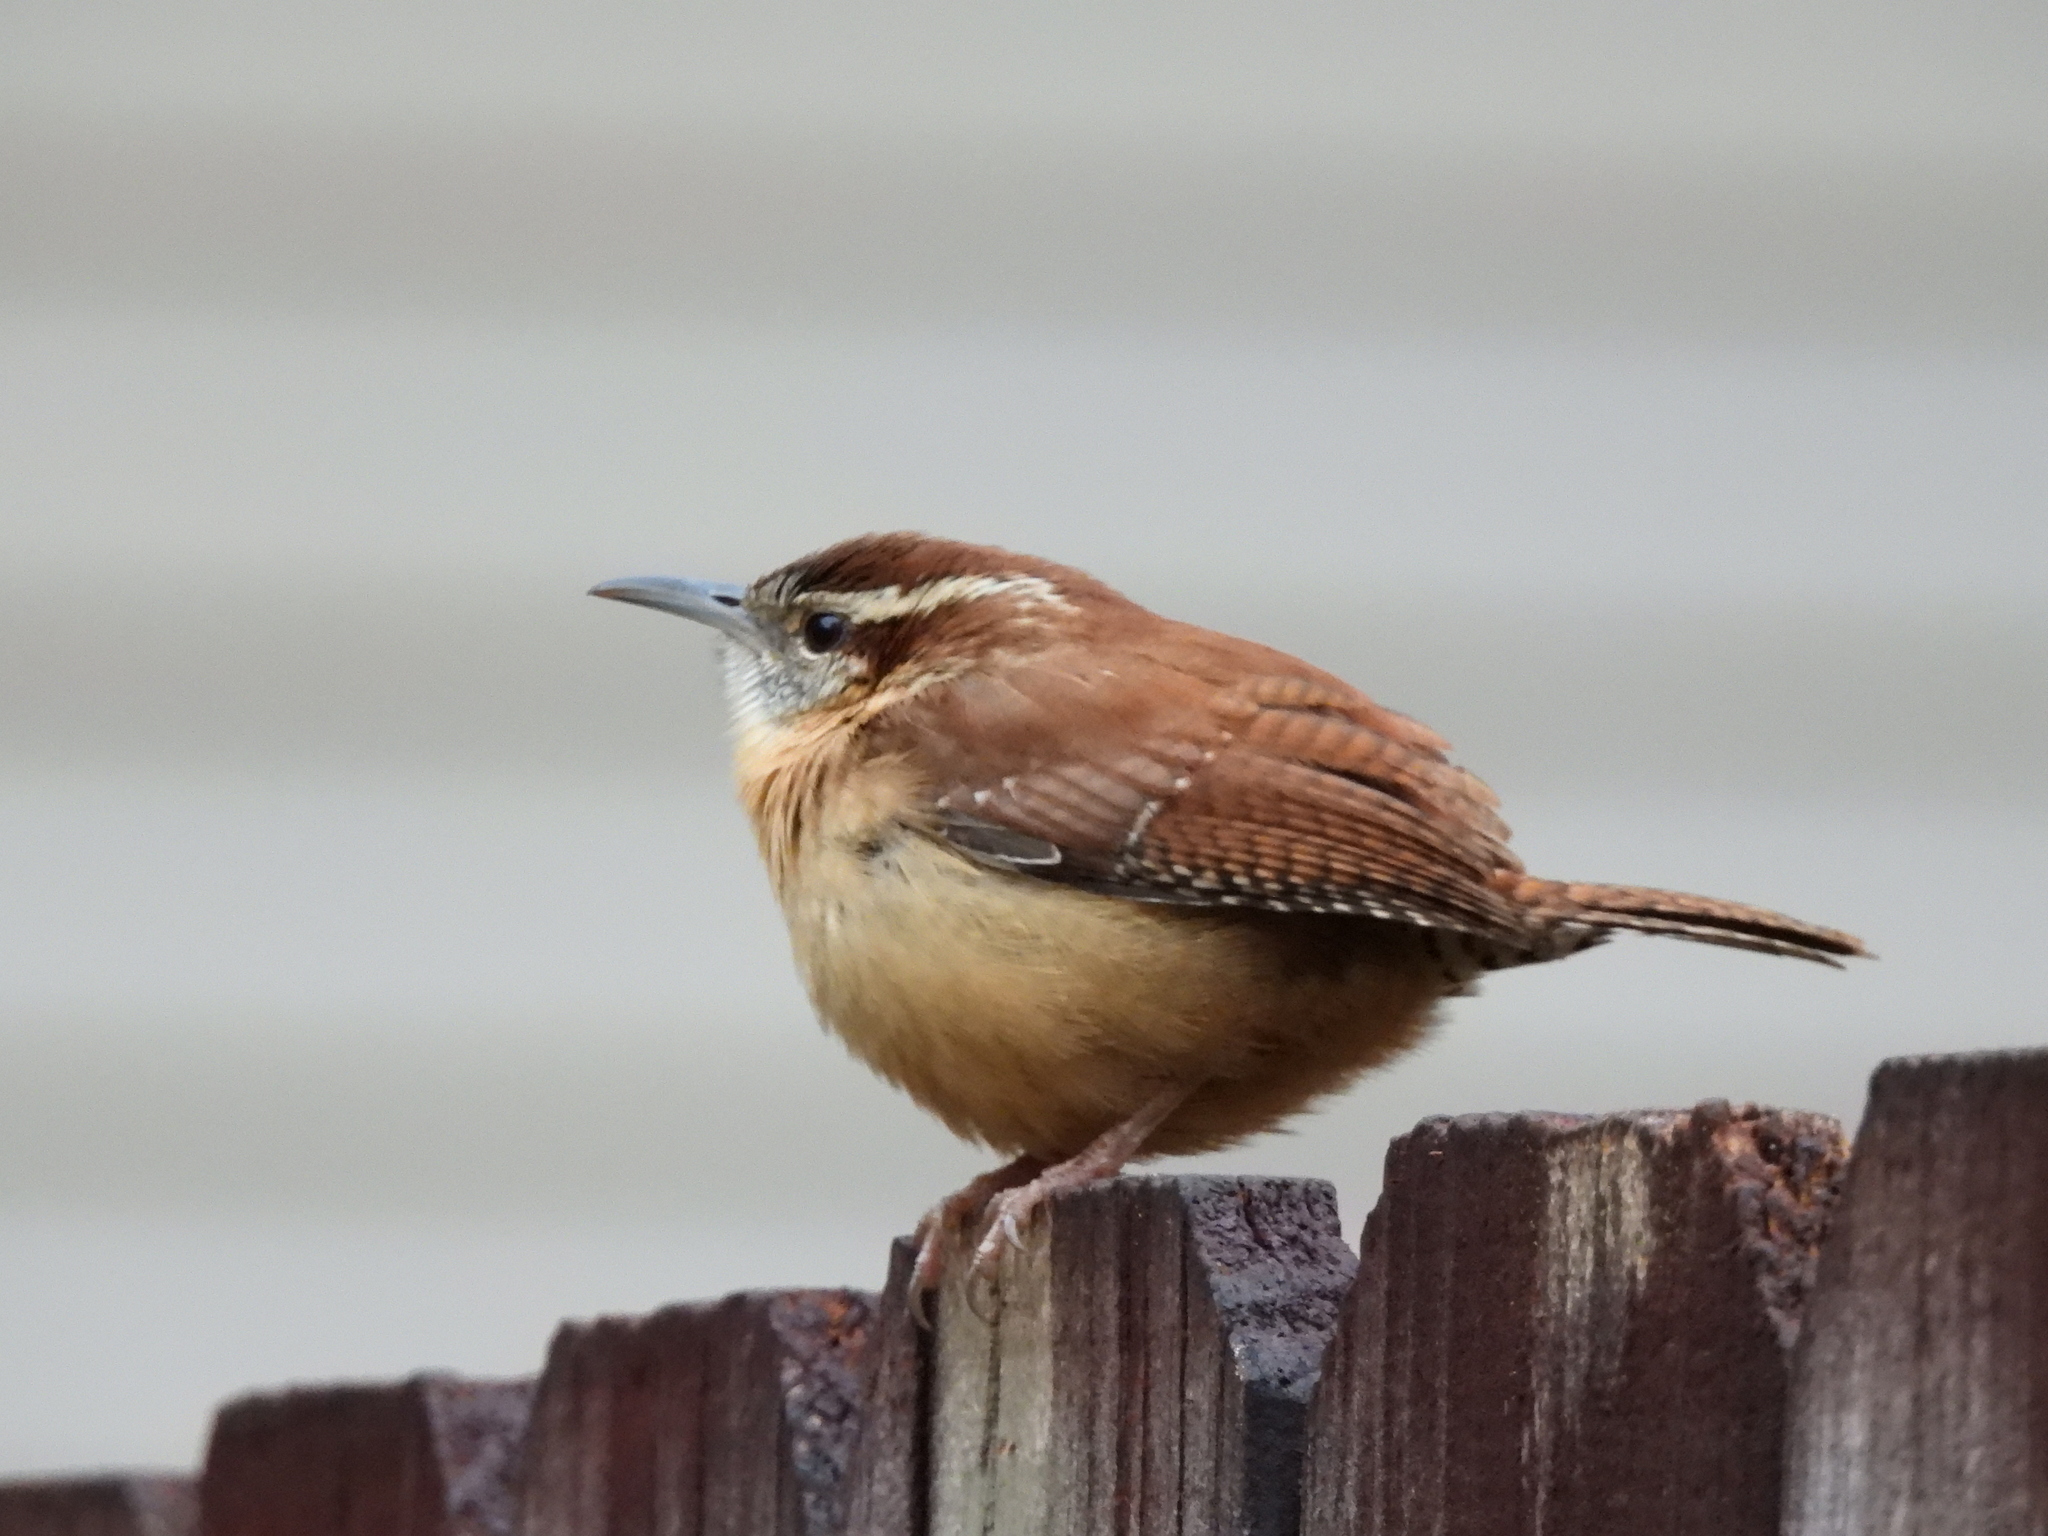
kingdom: Animalia
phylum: Chordata
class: Aves
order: Passeriformes
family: Troglodytidae
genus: Thryothorus
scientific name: Thryothorus ludovicianus
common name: Carolina wren
